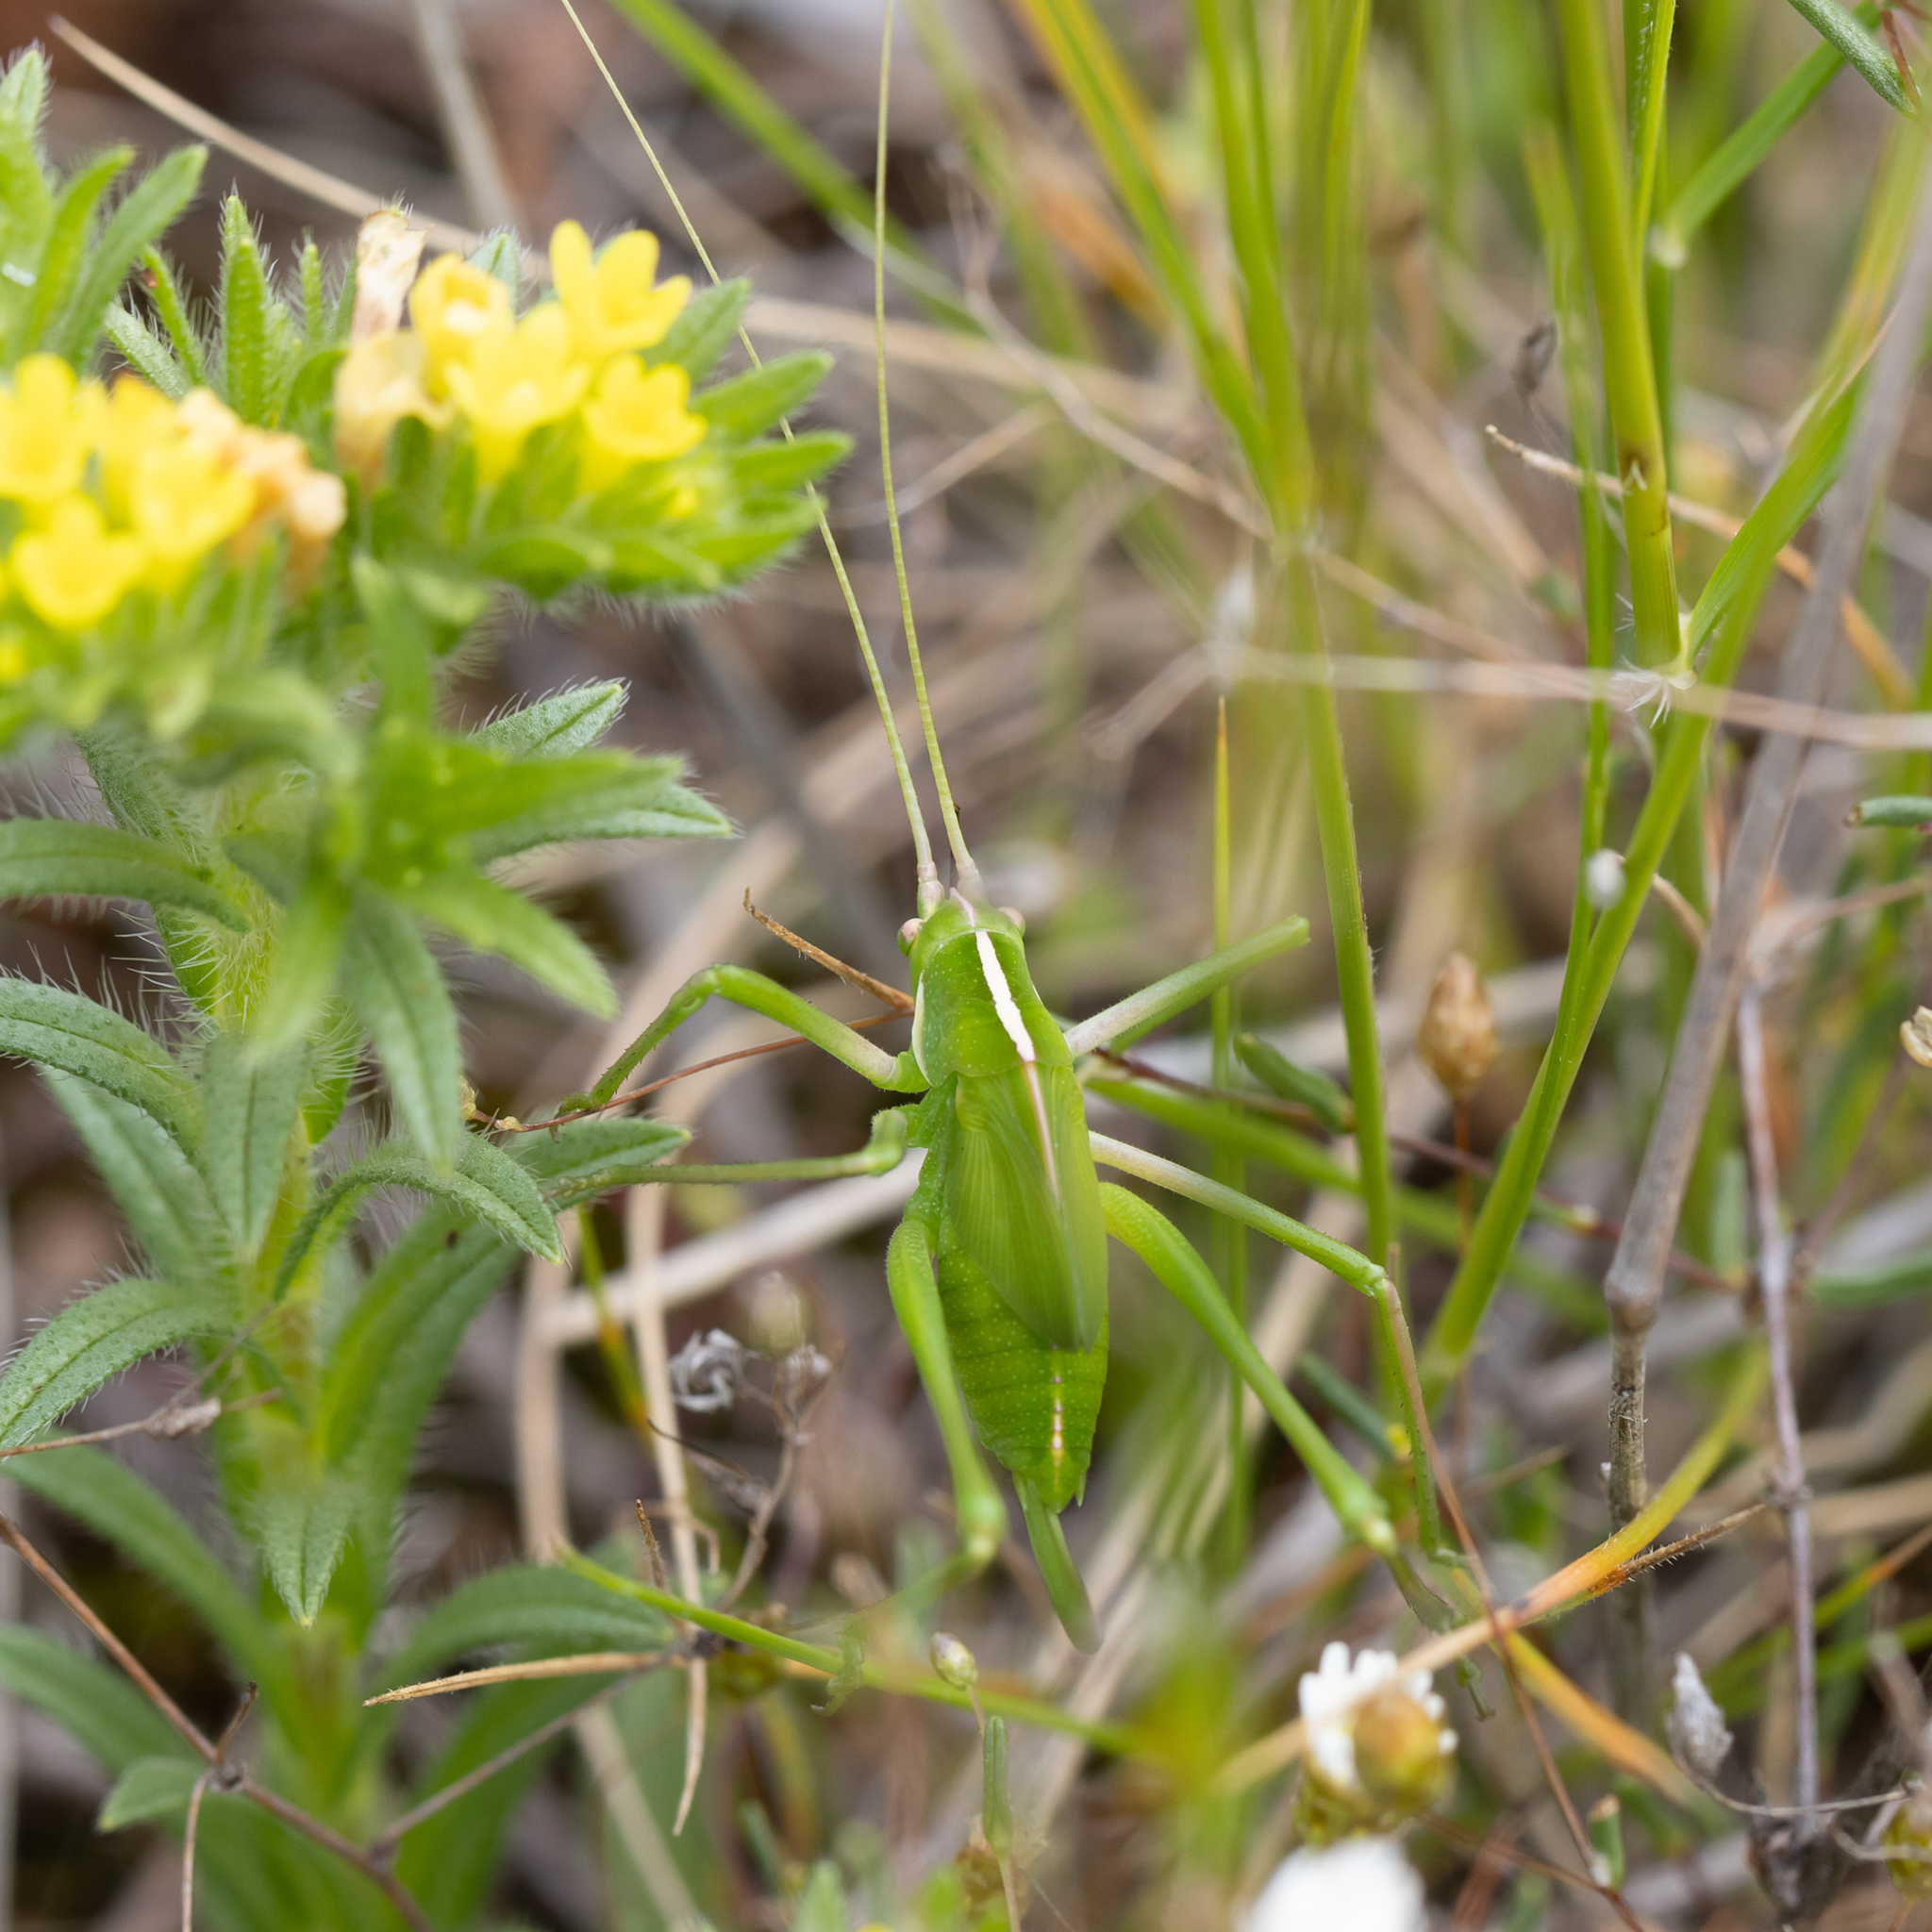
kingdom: Animalia
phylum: Arthropoda
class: Insecta
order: Orthoptera
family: Tettigoniidae
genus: Tinzeda
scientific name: Tinzeda sororoides
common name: Southern tinzeda
